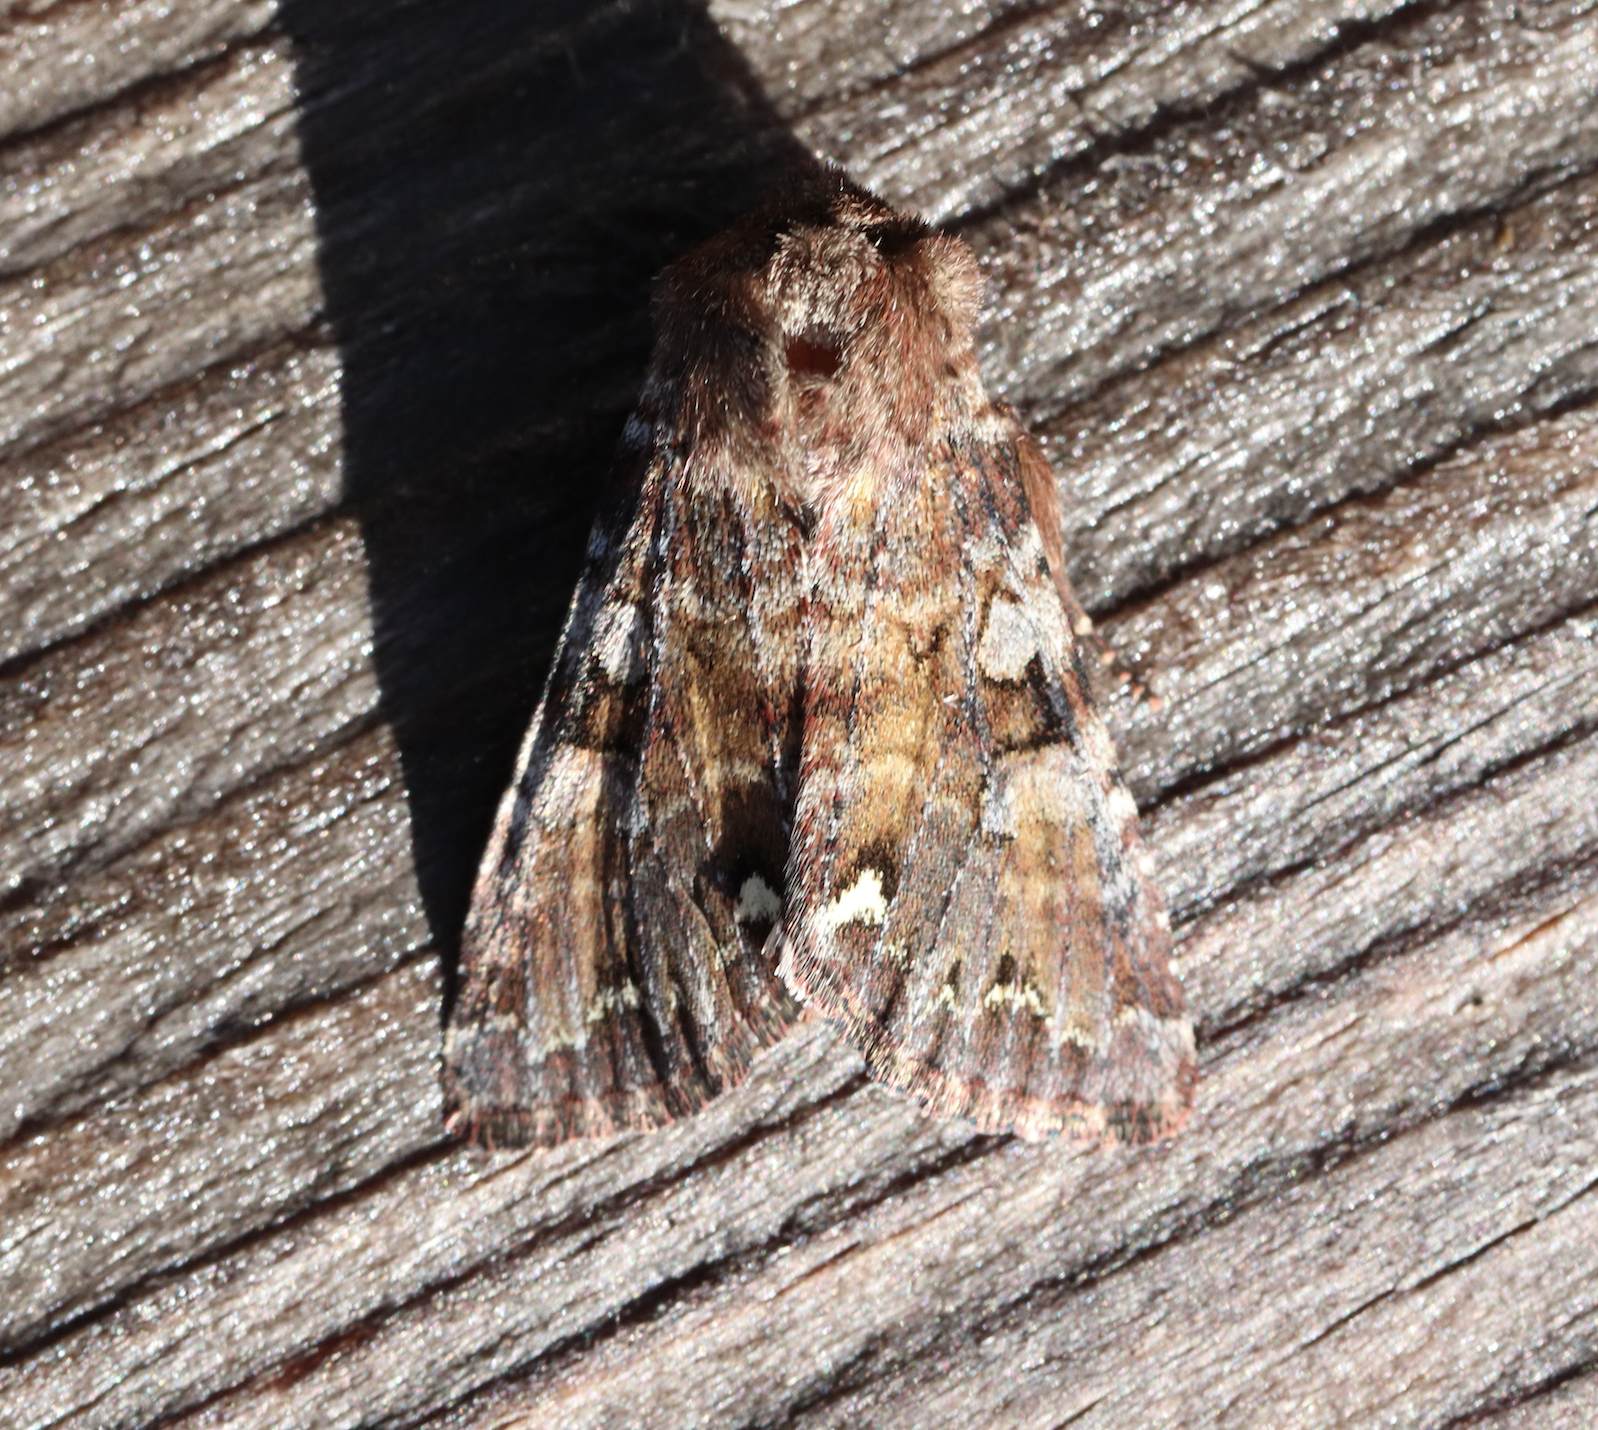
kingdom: Animalia
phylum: Arthropoda
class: Insecta
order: Lepidoptera
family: Noctuidae
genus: Ceramica
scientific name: Ceramica pisi
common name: Broom moth
